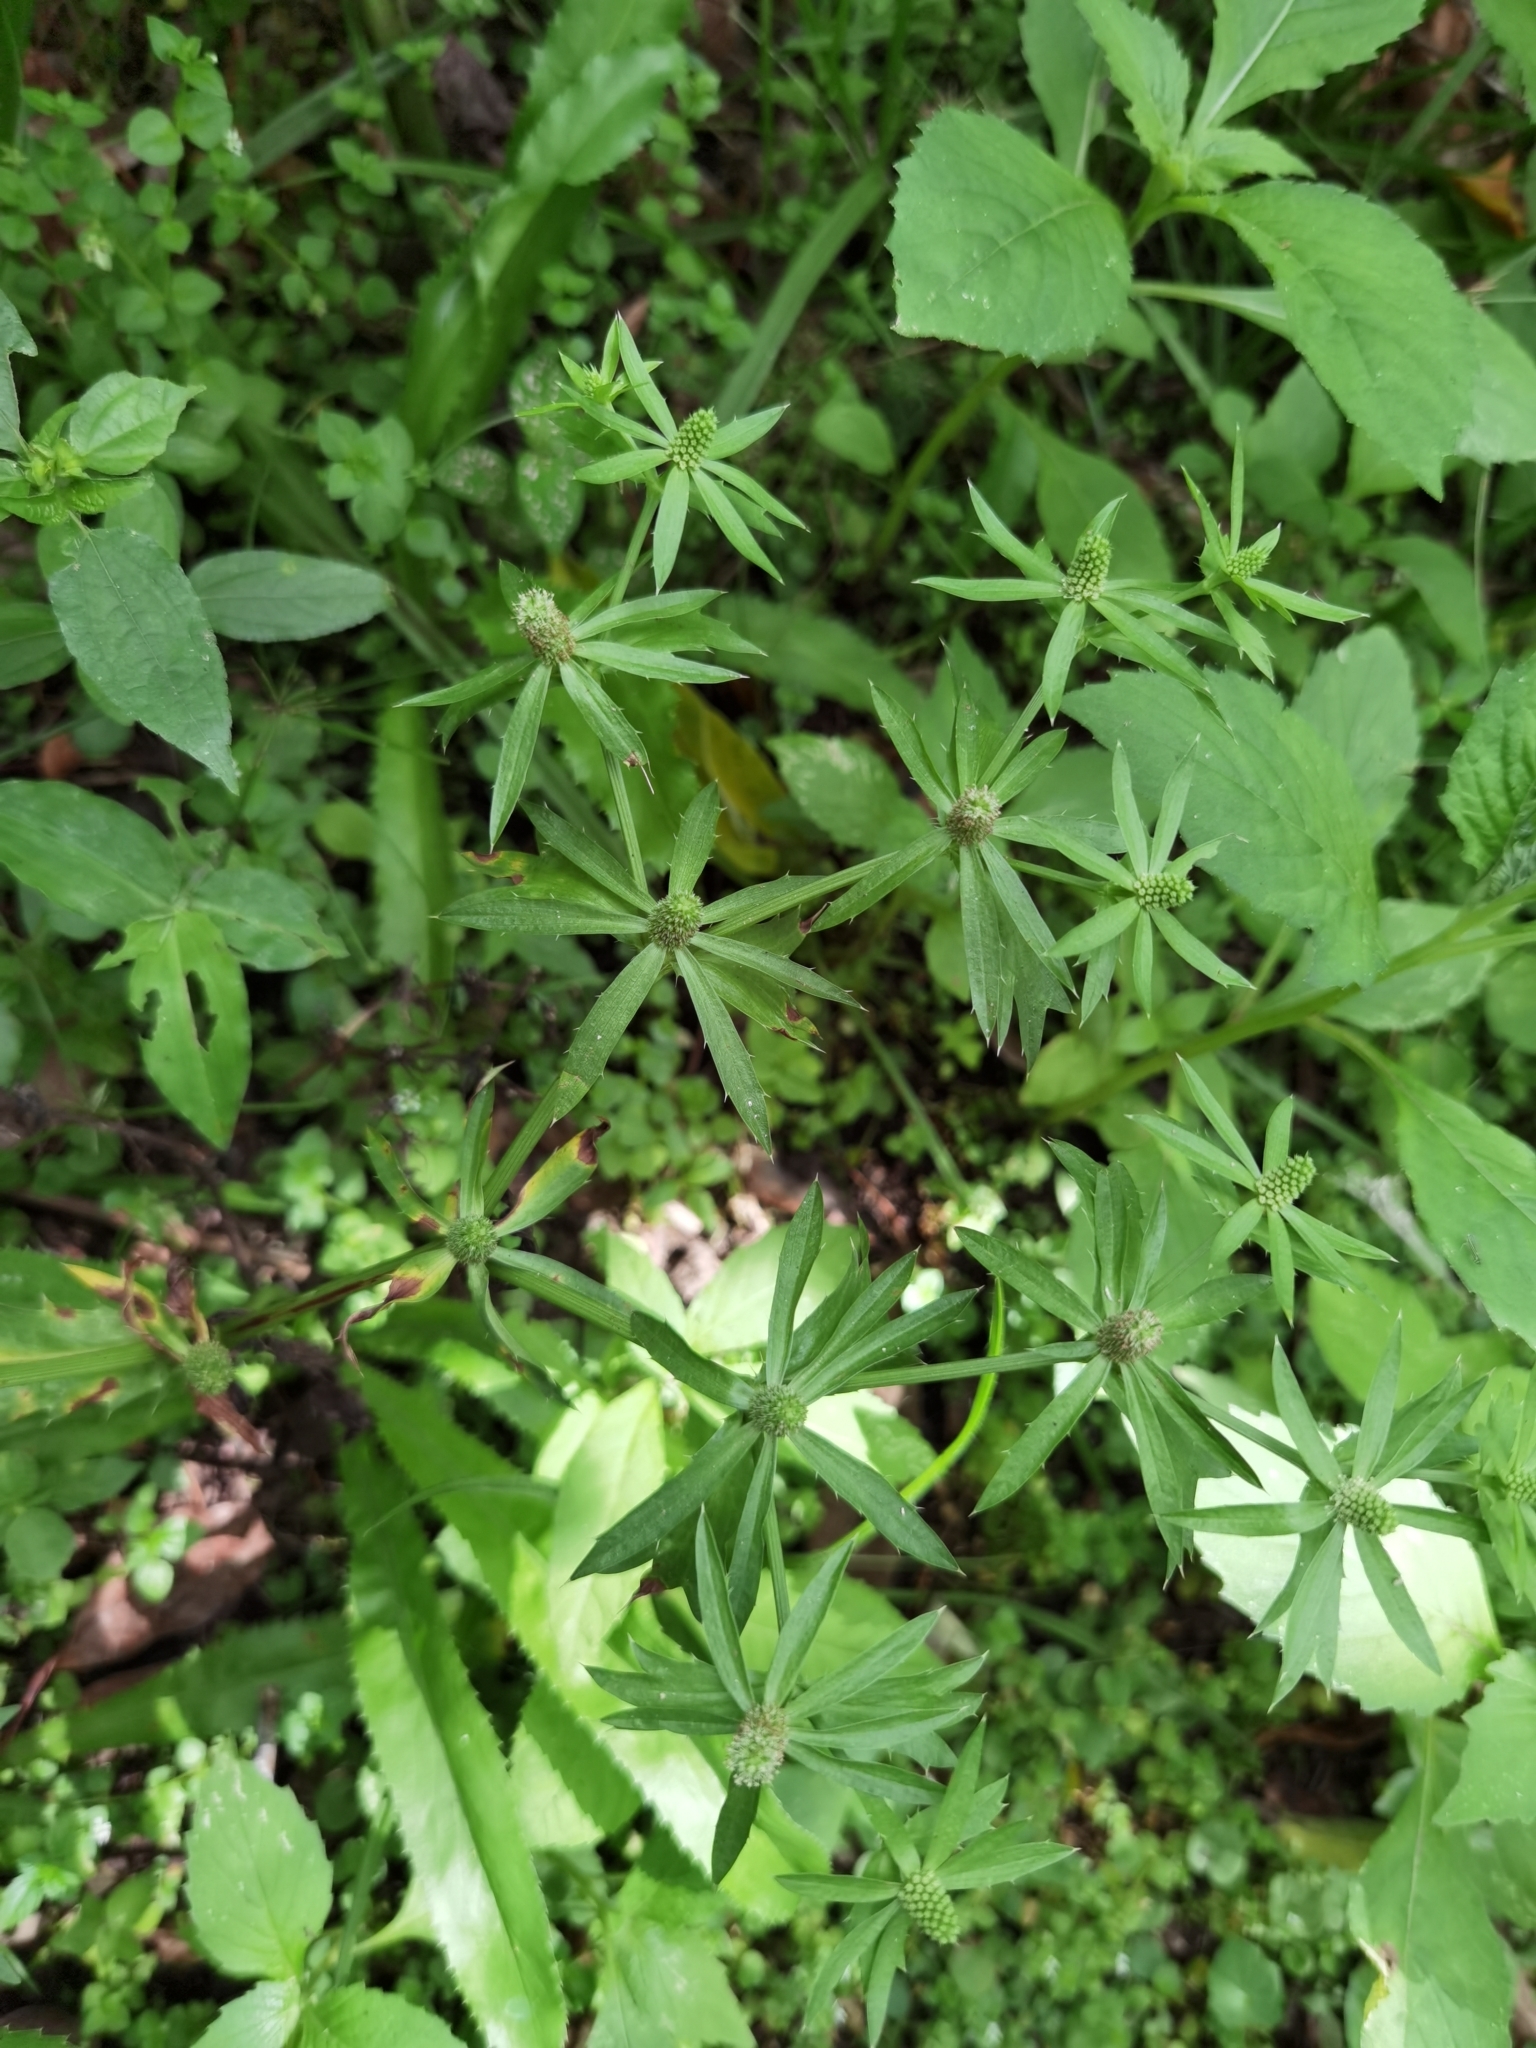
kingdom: Plantae
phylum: Tracheophyta
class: Magnoliopsida
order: Apiales
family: Apiaceae
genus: Eryngium
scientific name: Eryngium foetidum
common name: Fitweed
